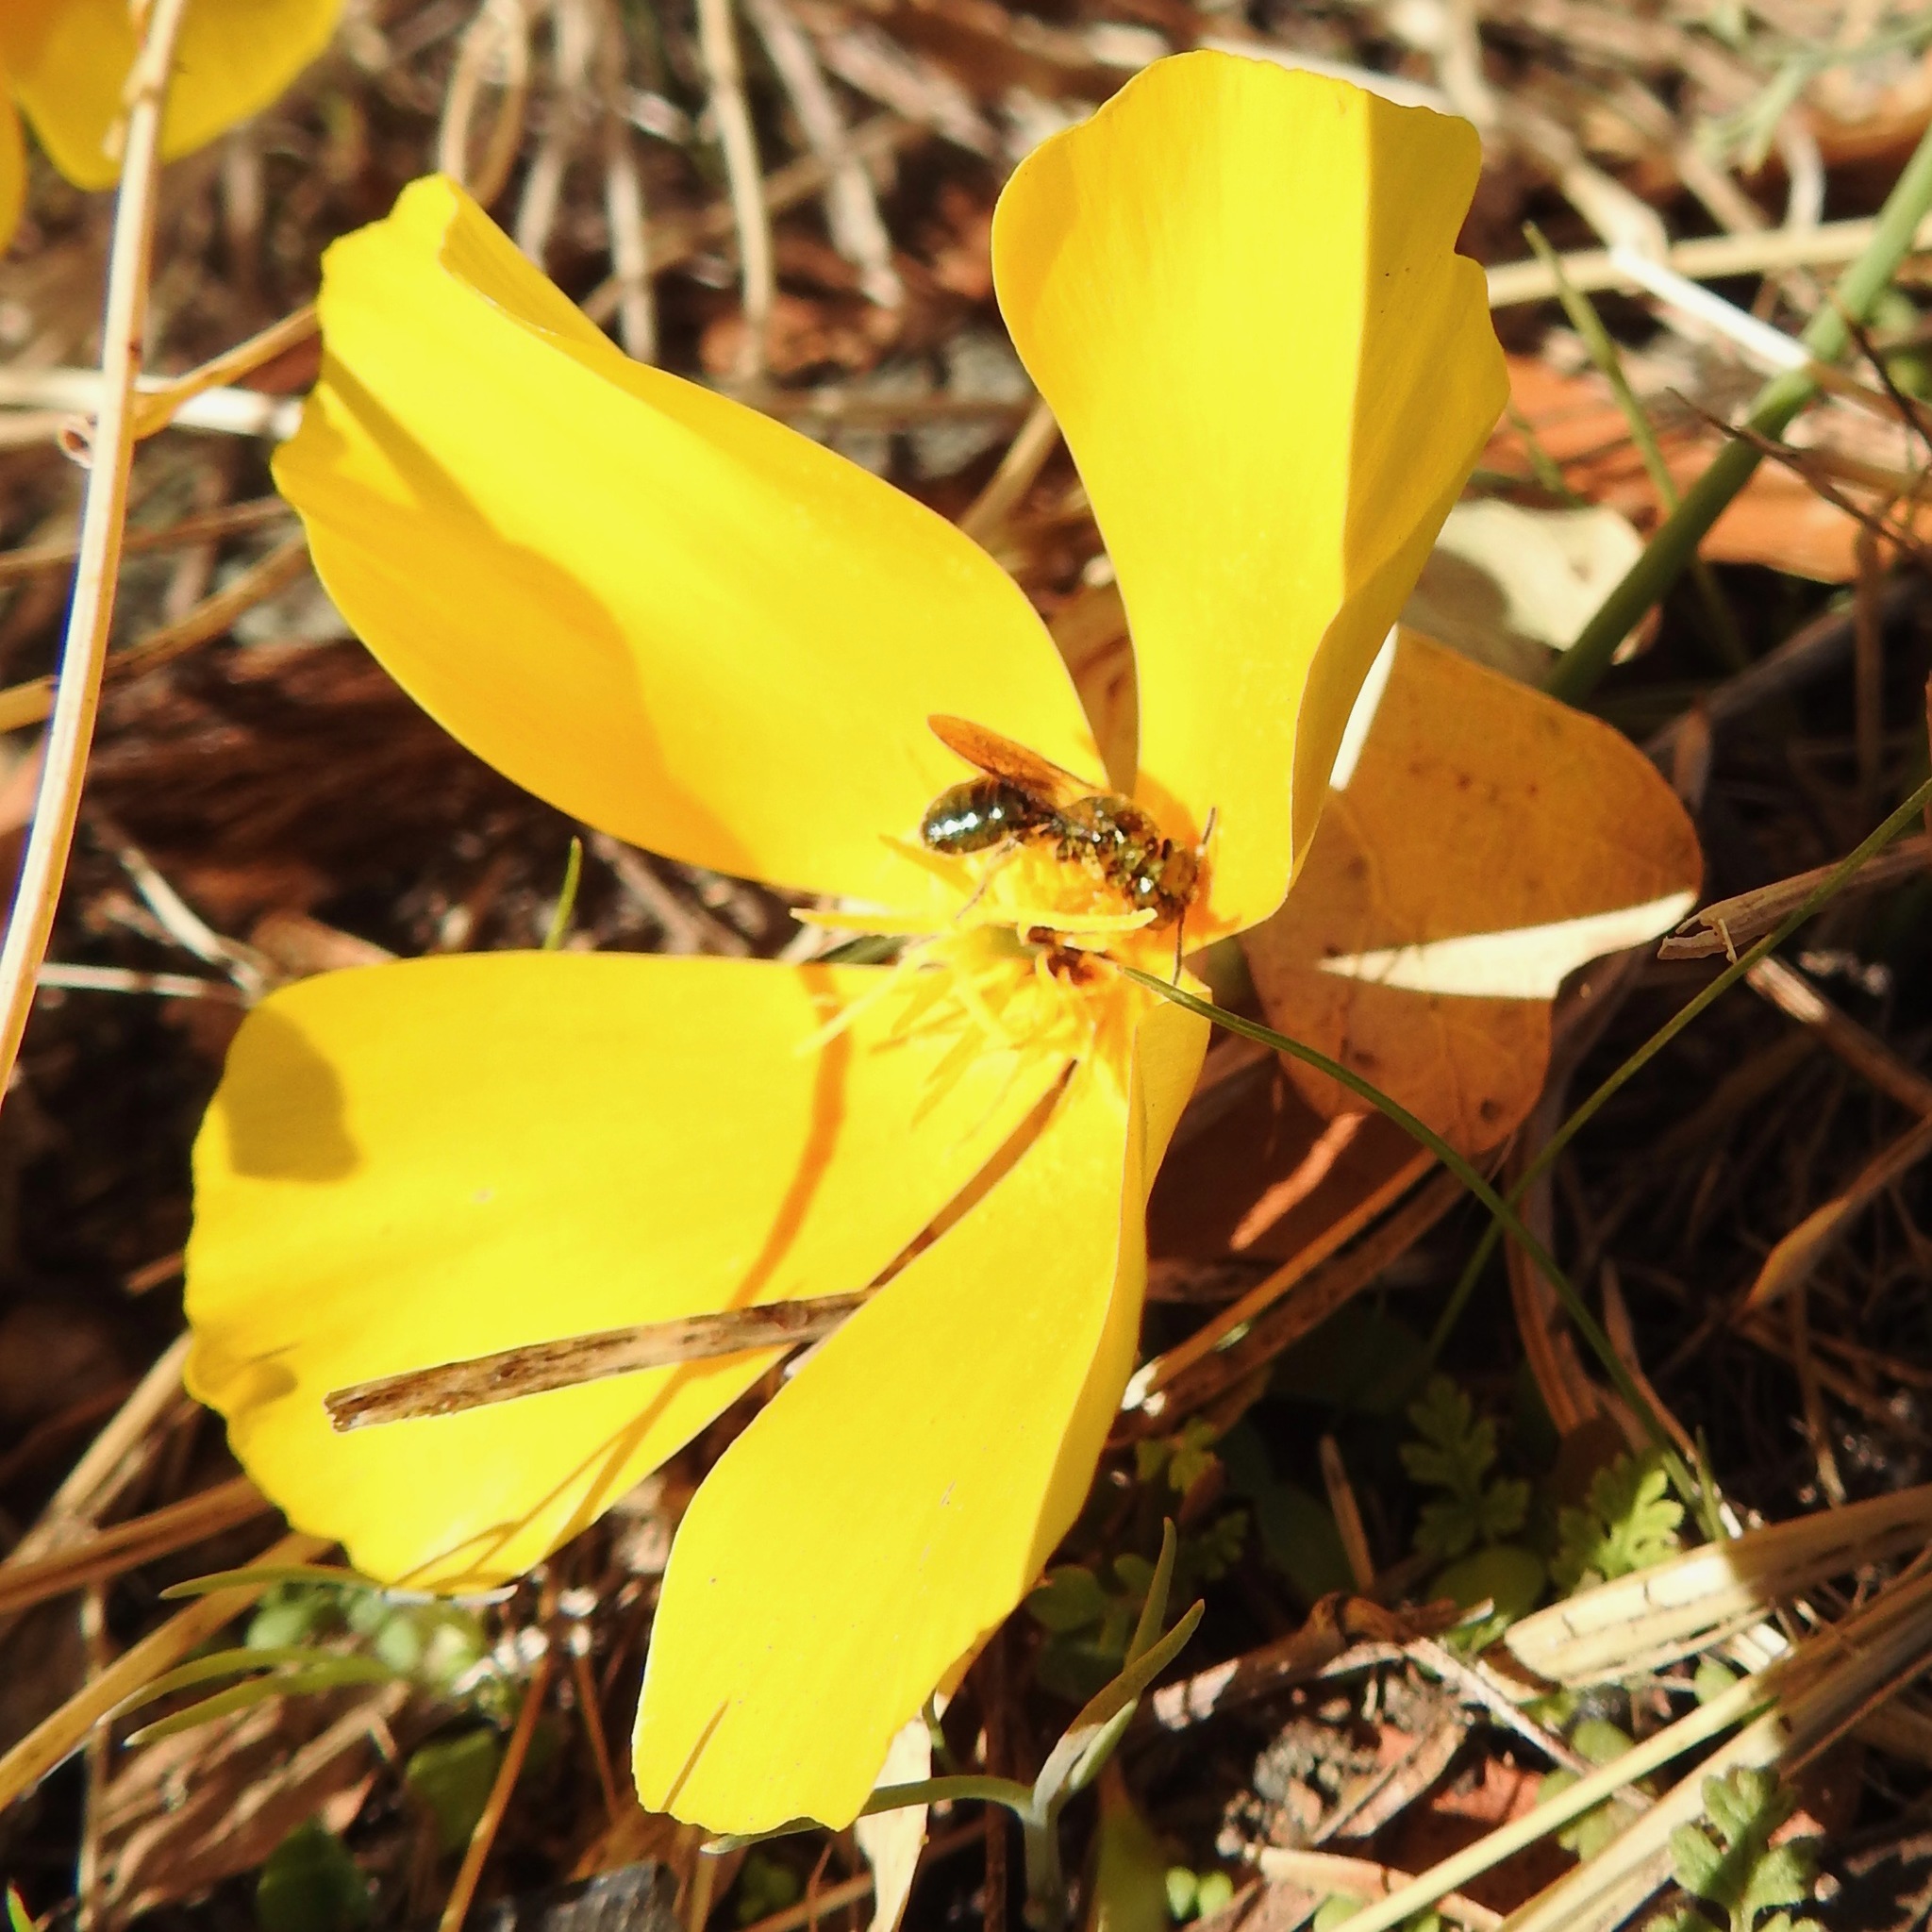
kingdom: Plantae
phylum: Tracheophyta
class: Magnoliopsida
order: Ranunculales
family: Papaveraceae
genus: Eschscholzia
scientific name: Eschscholzia californica
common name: California poppy
